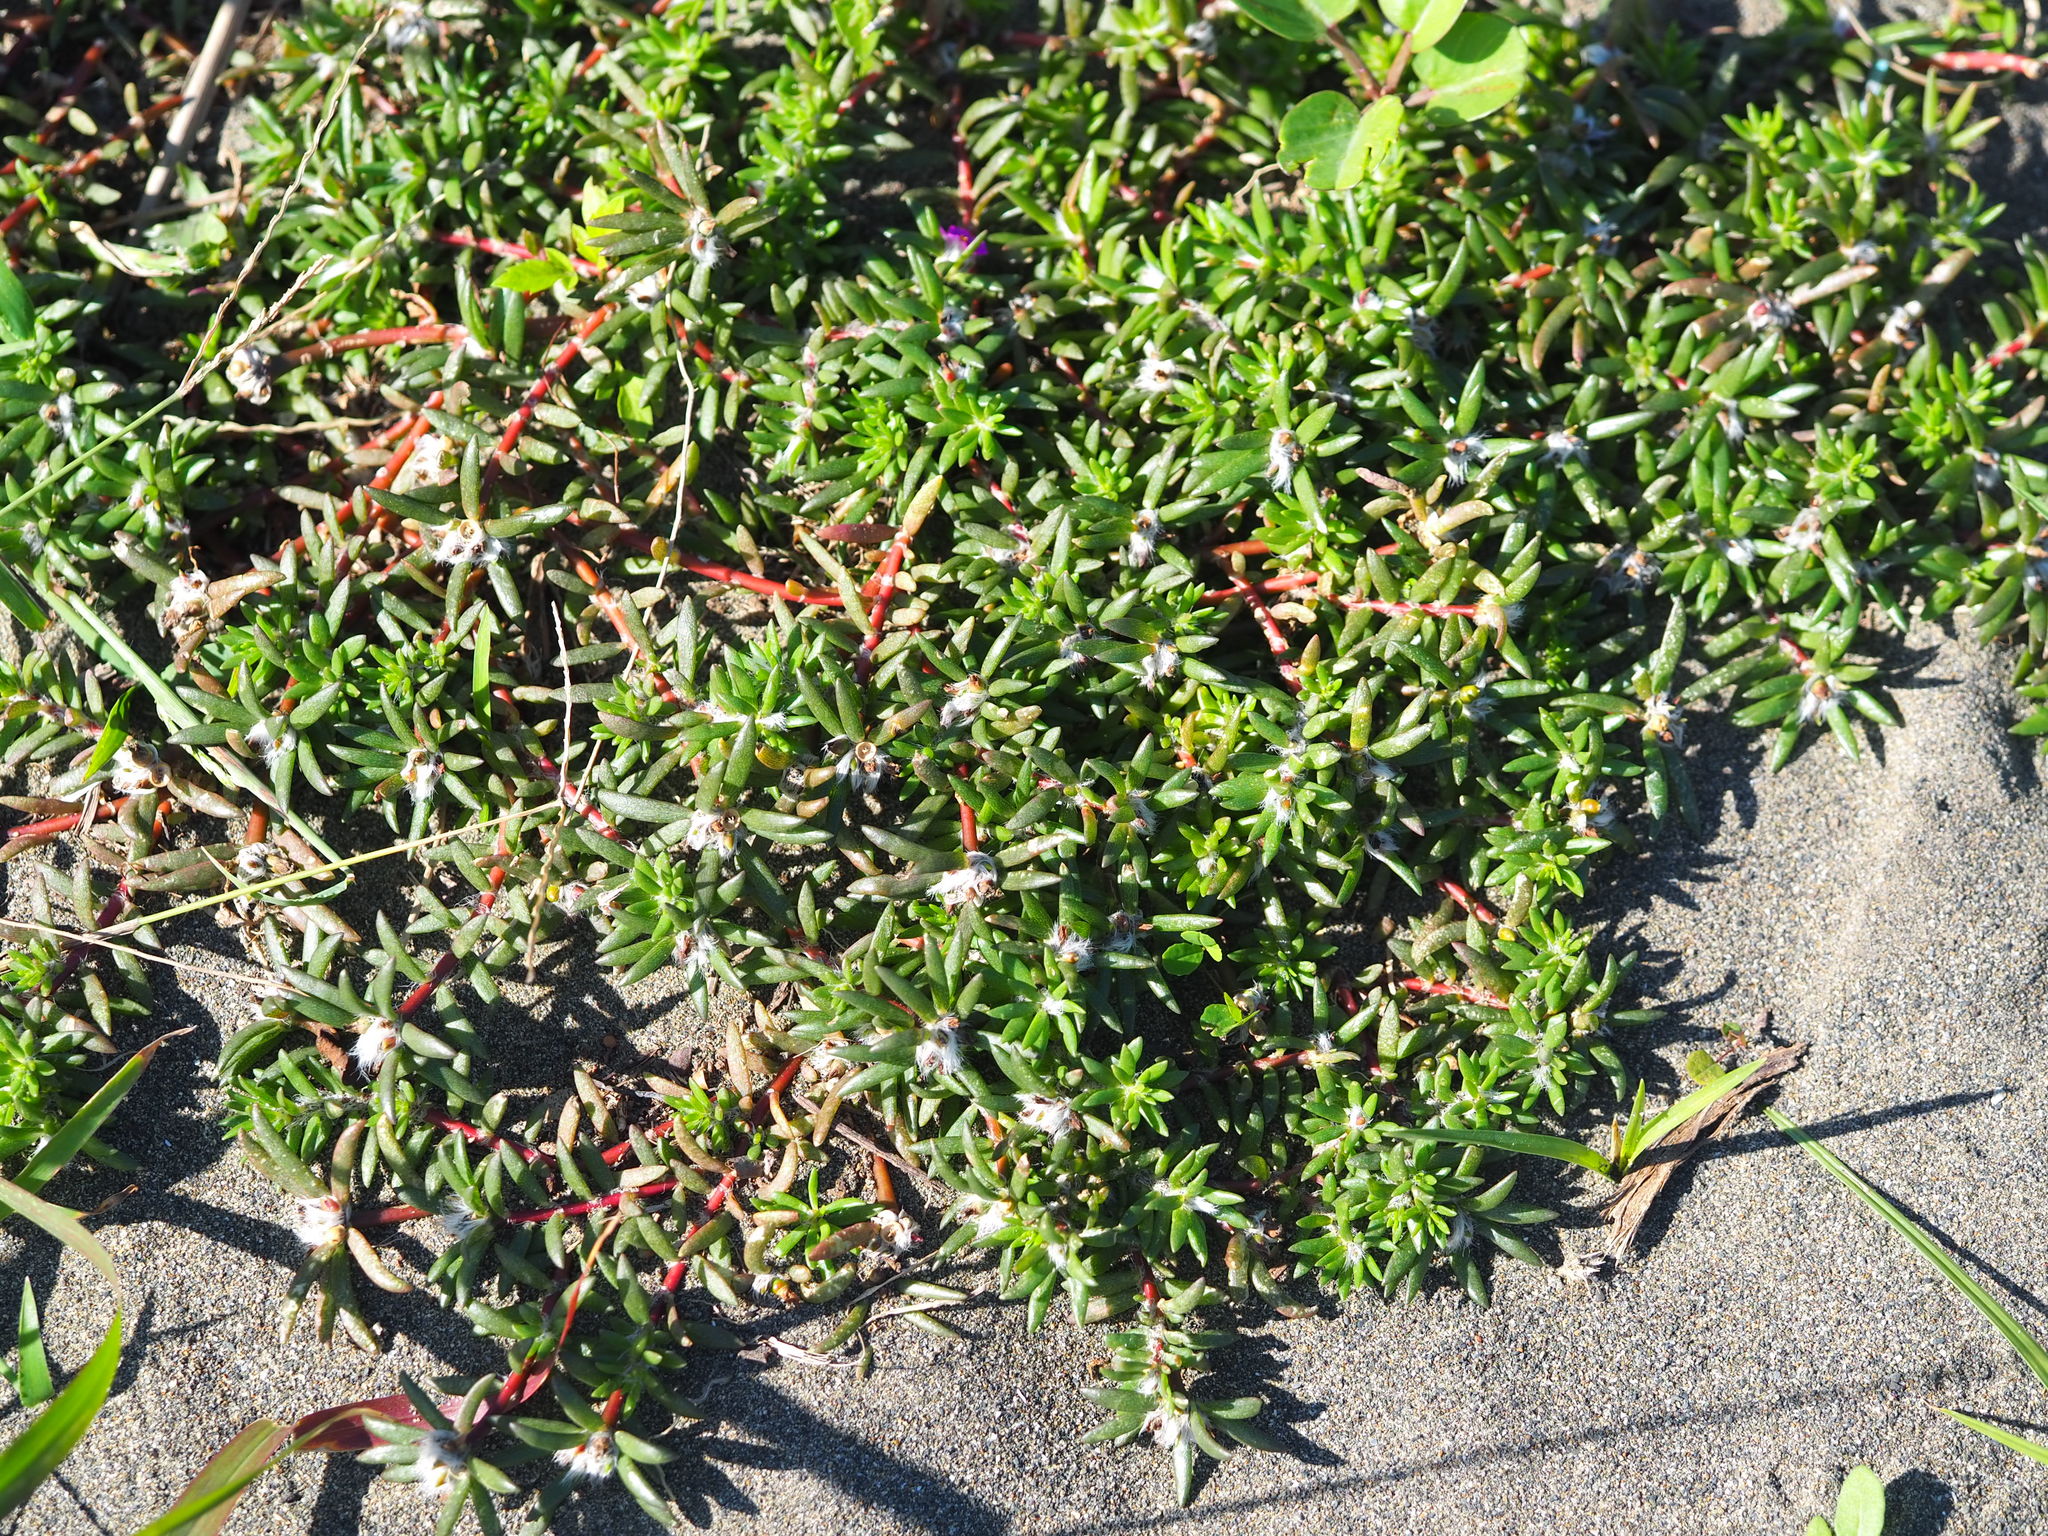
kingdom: Plantae
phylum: Tracheophyta
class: Magnoliopsida
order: Caryophyllales
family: Portulacaceae
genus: Portulaca
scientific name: Portulaca pilosa
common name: Kiss me quick
